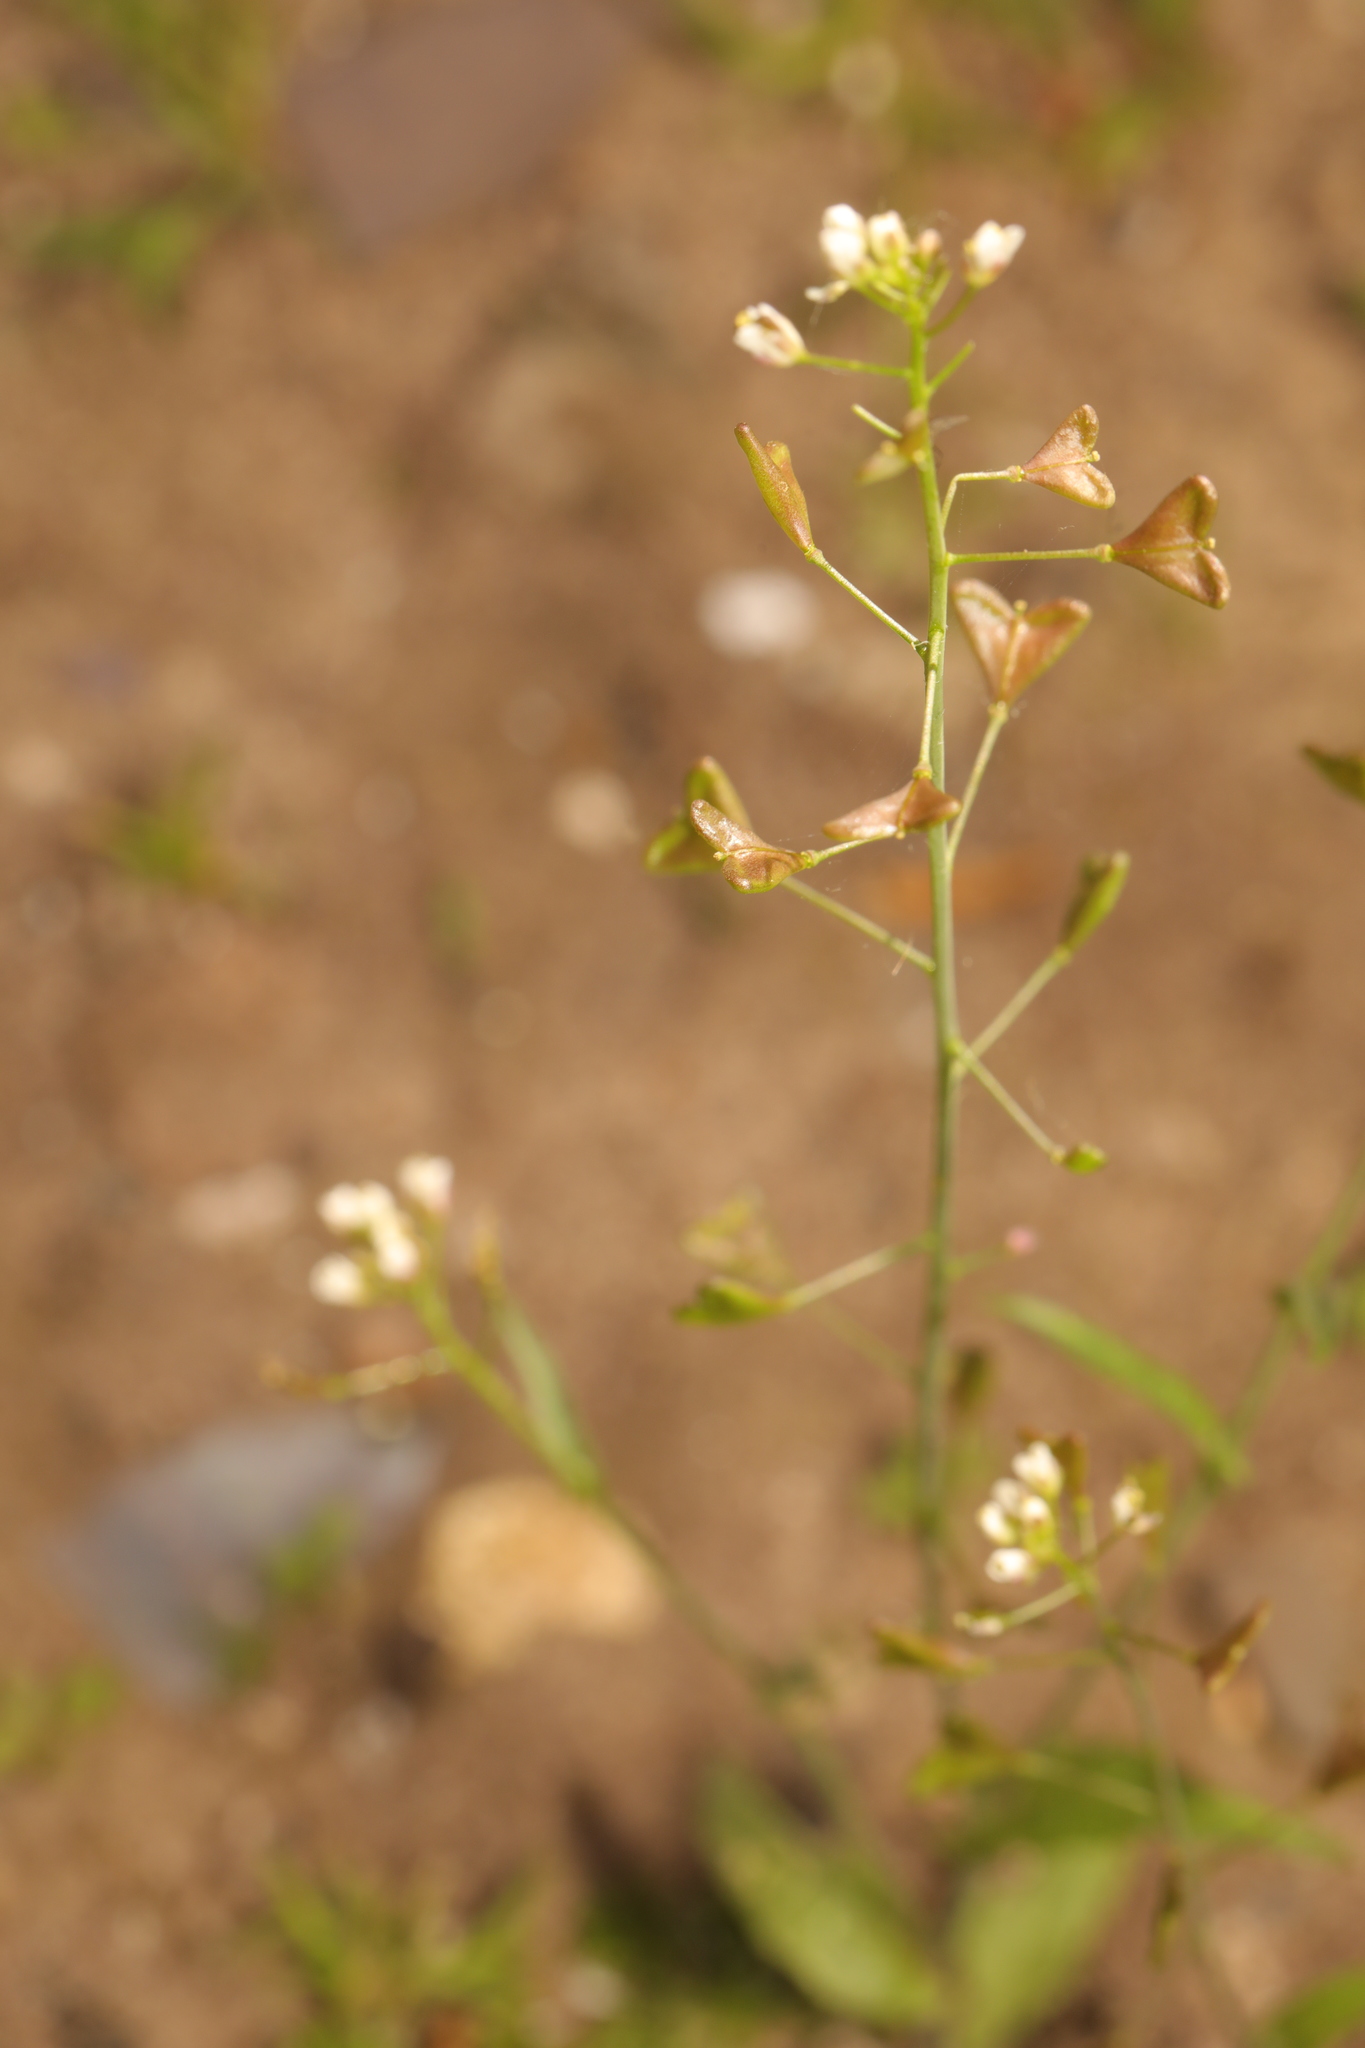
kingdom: Plantae
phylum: Tracheophyta
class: Magnoliopsida
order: Brassicales
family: Brassicaceae
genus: Capsella
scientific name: Capsella bursa-pastoris
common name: Shepherd's purse
